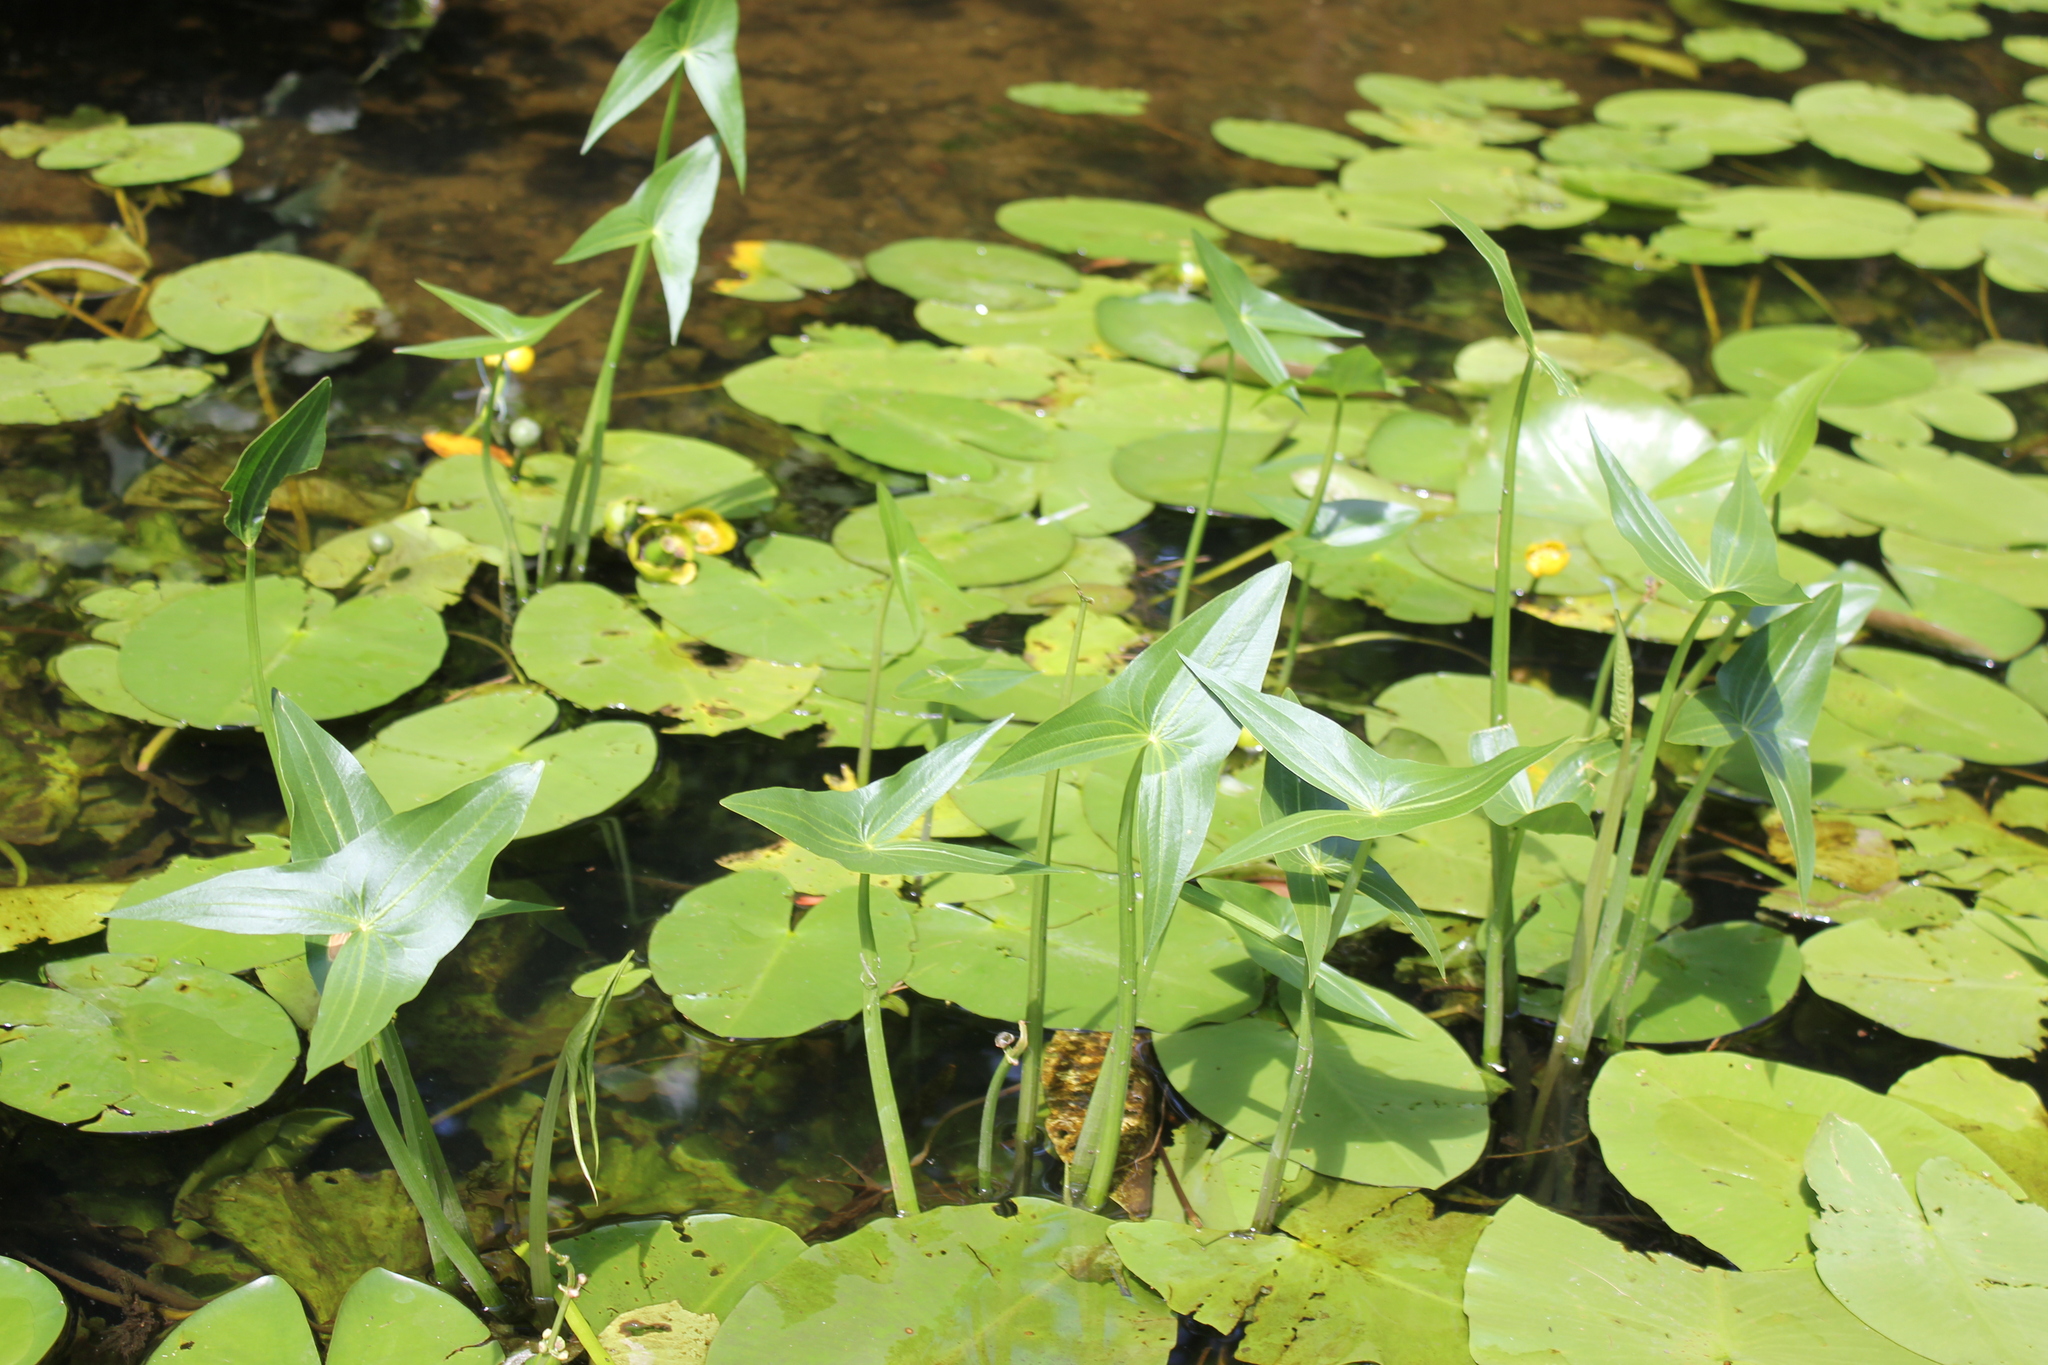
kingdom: Plantae
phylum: Tracheophyta
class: Liliopsida
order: Alismatales
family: Alismataceae
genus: Sagittaria
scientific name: Sagittaria sagittifolia
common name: Arrowhead
